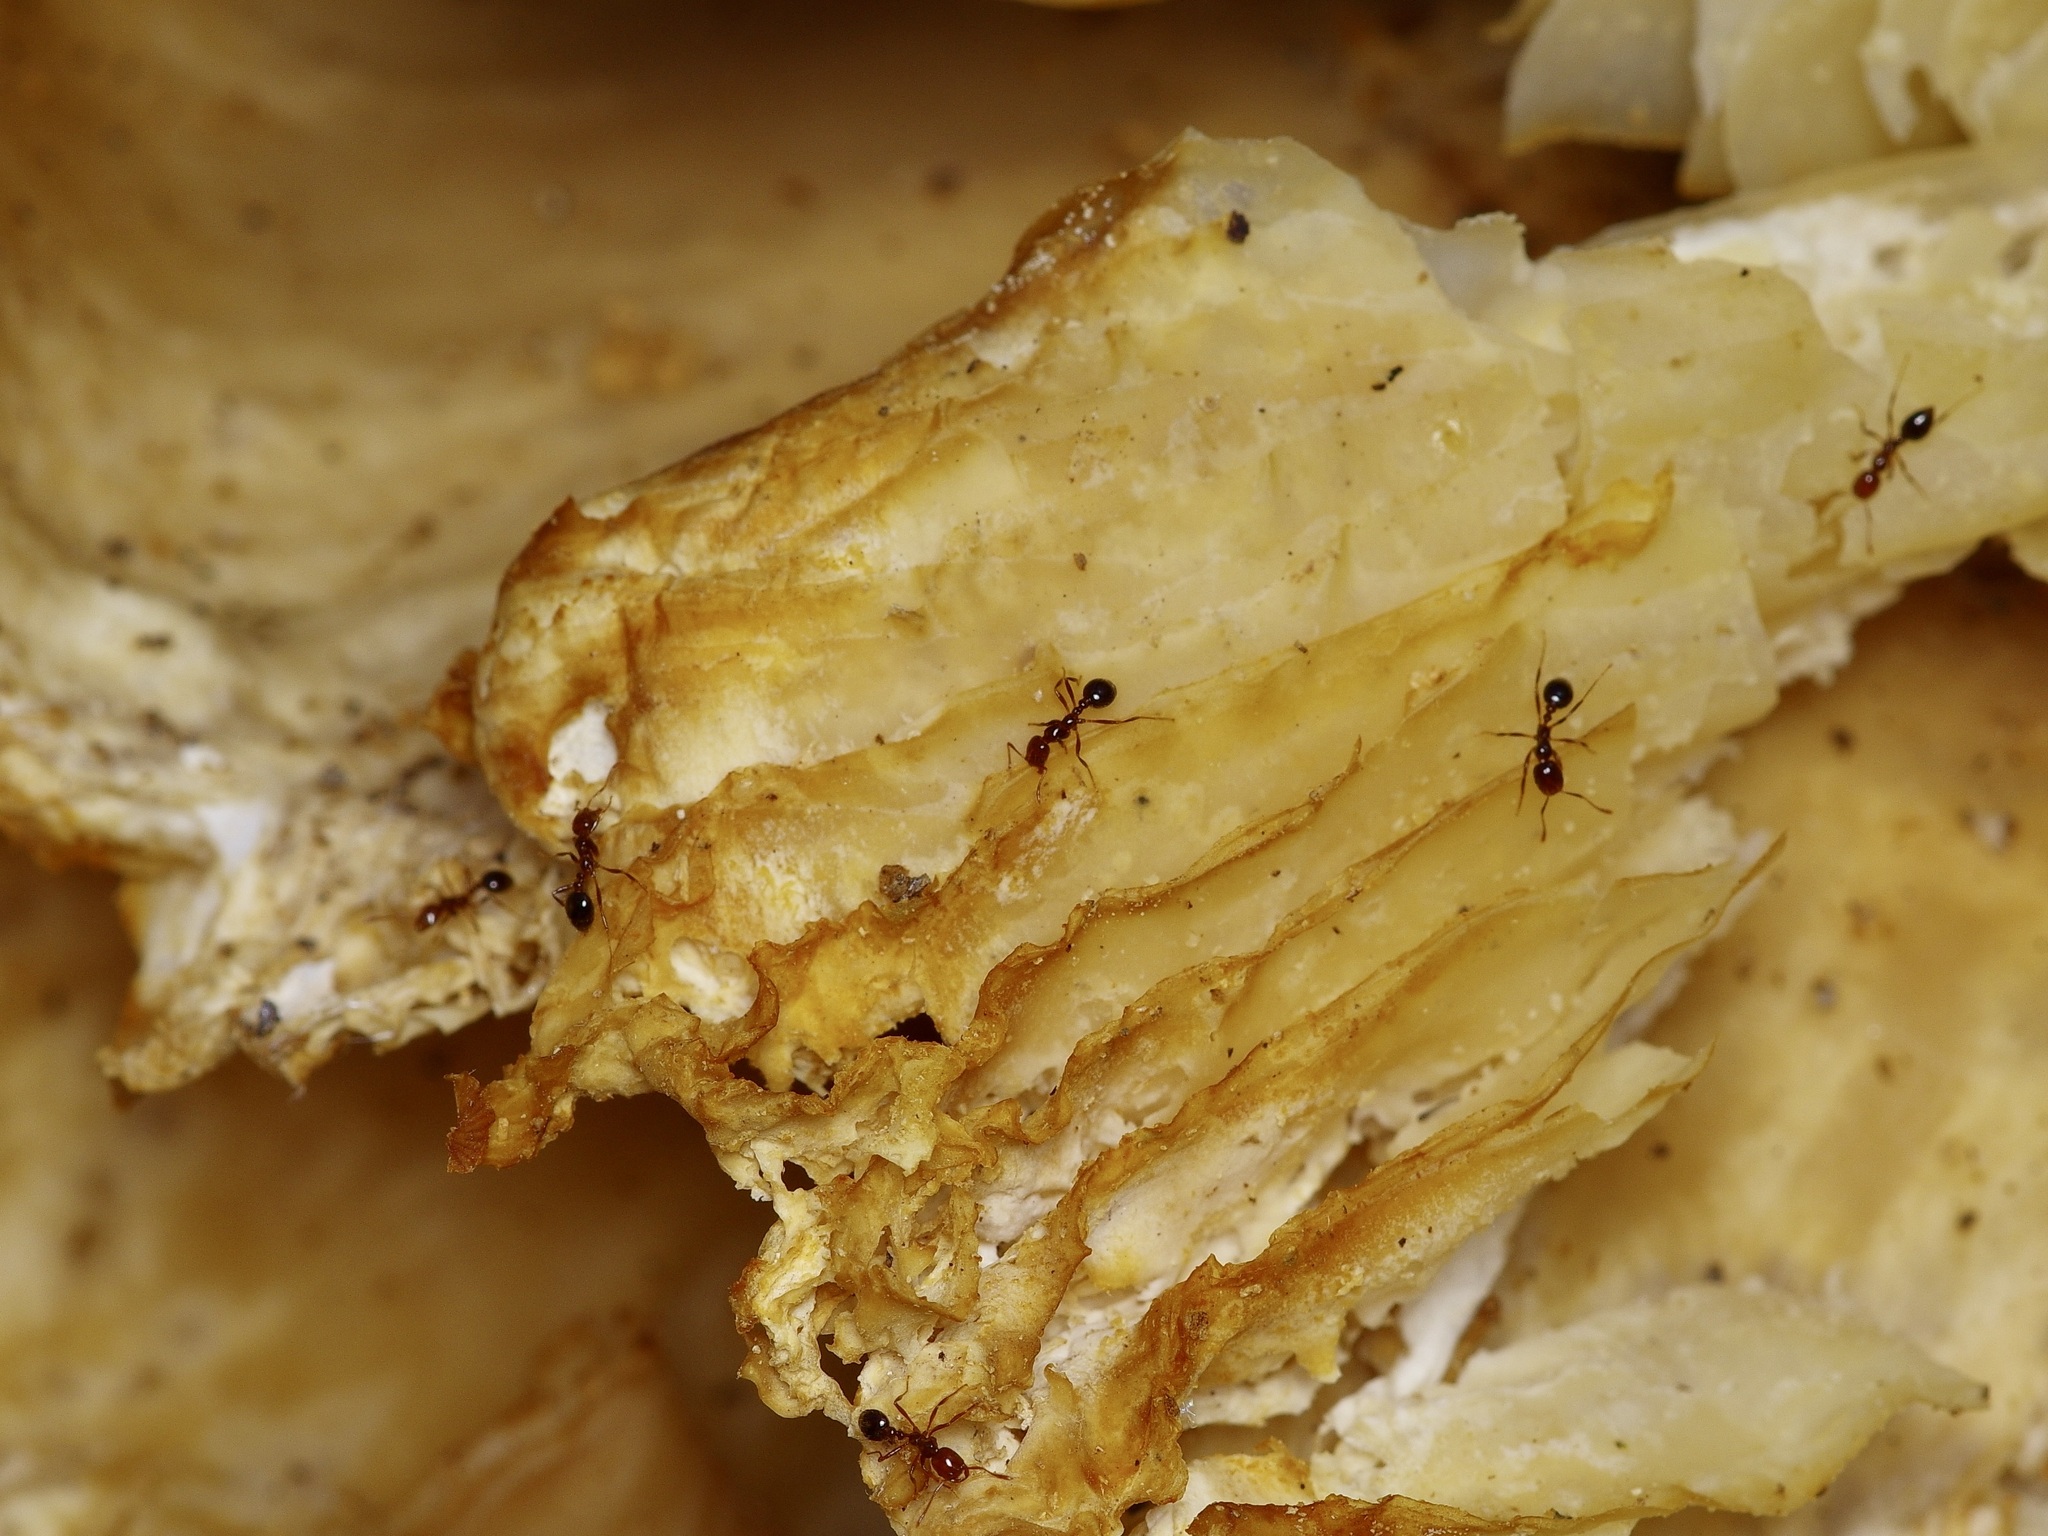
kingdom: Animalia
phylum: Arthropoda
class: Insecta
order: Hymenoptera
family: Formicidae
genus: Solenopsis
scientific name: Solenopsis invicta
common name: Red imported fire ant
